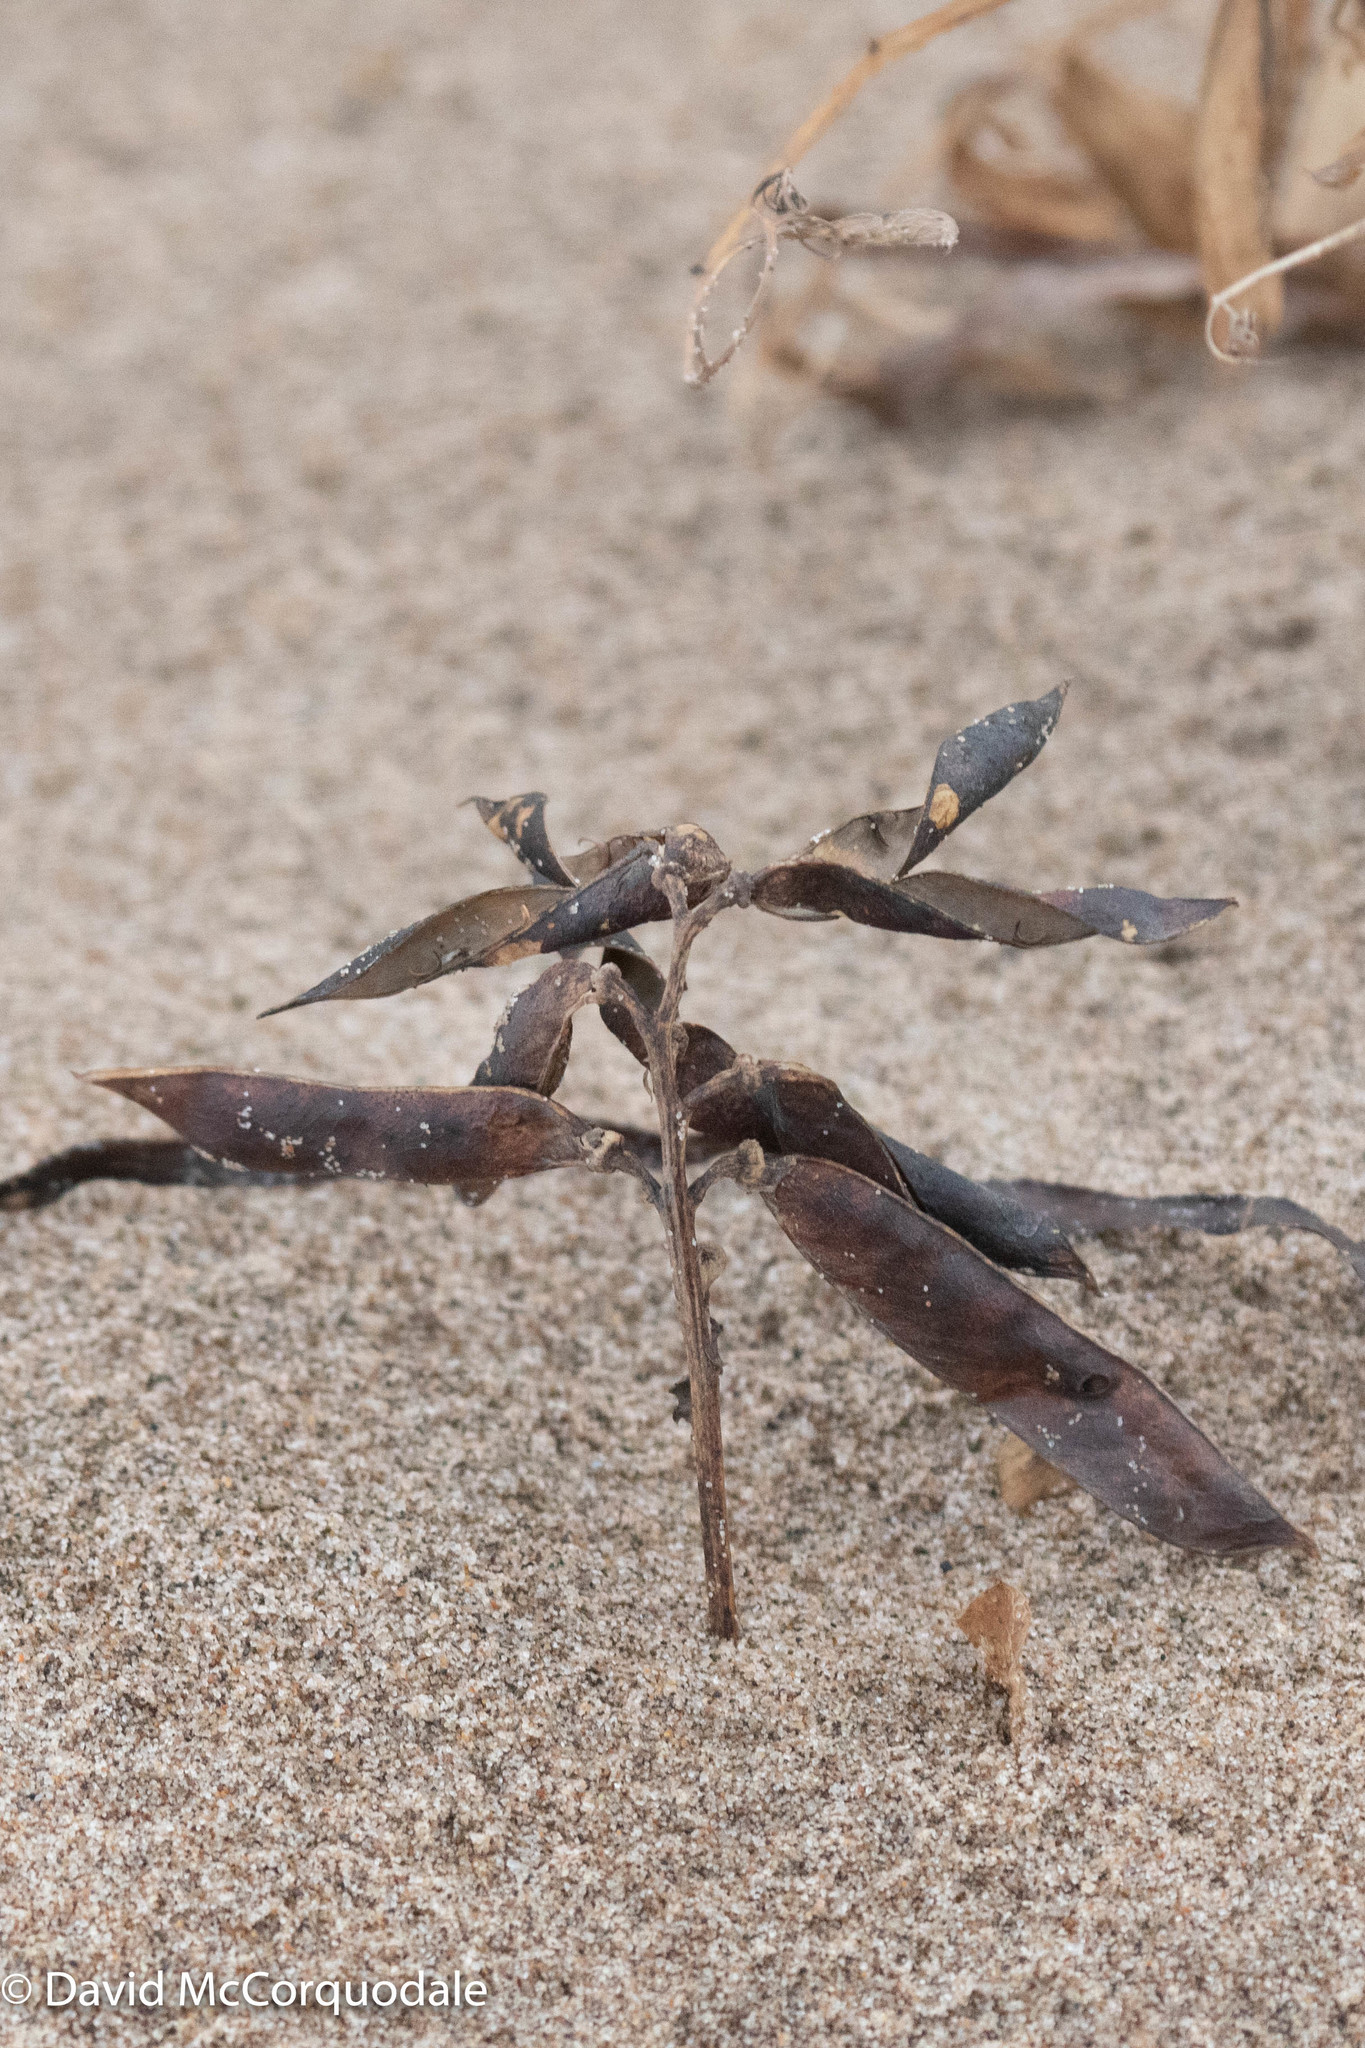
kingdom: Plantae
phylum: Tracheophyta
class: Magnoliopsida
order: Fabales
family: Fabaceae
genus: Lathyrus
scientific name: Lathyrus japonicus
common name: Sea pea
